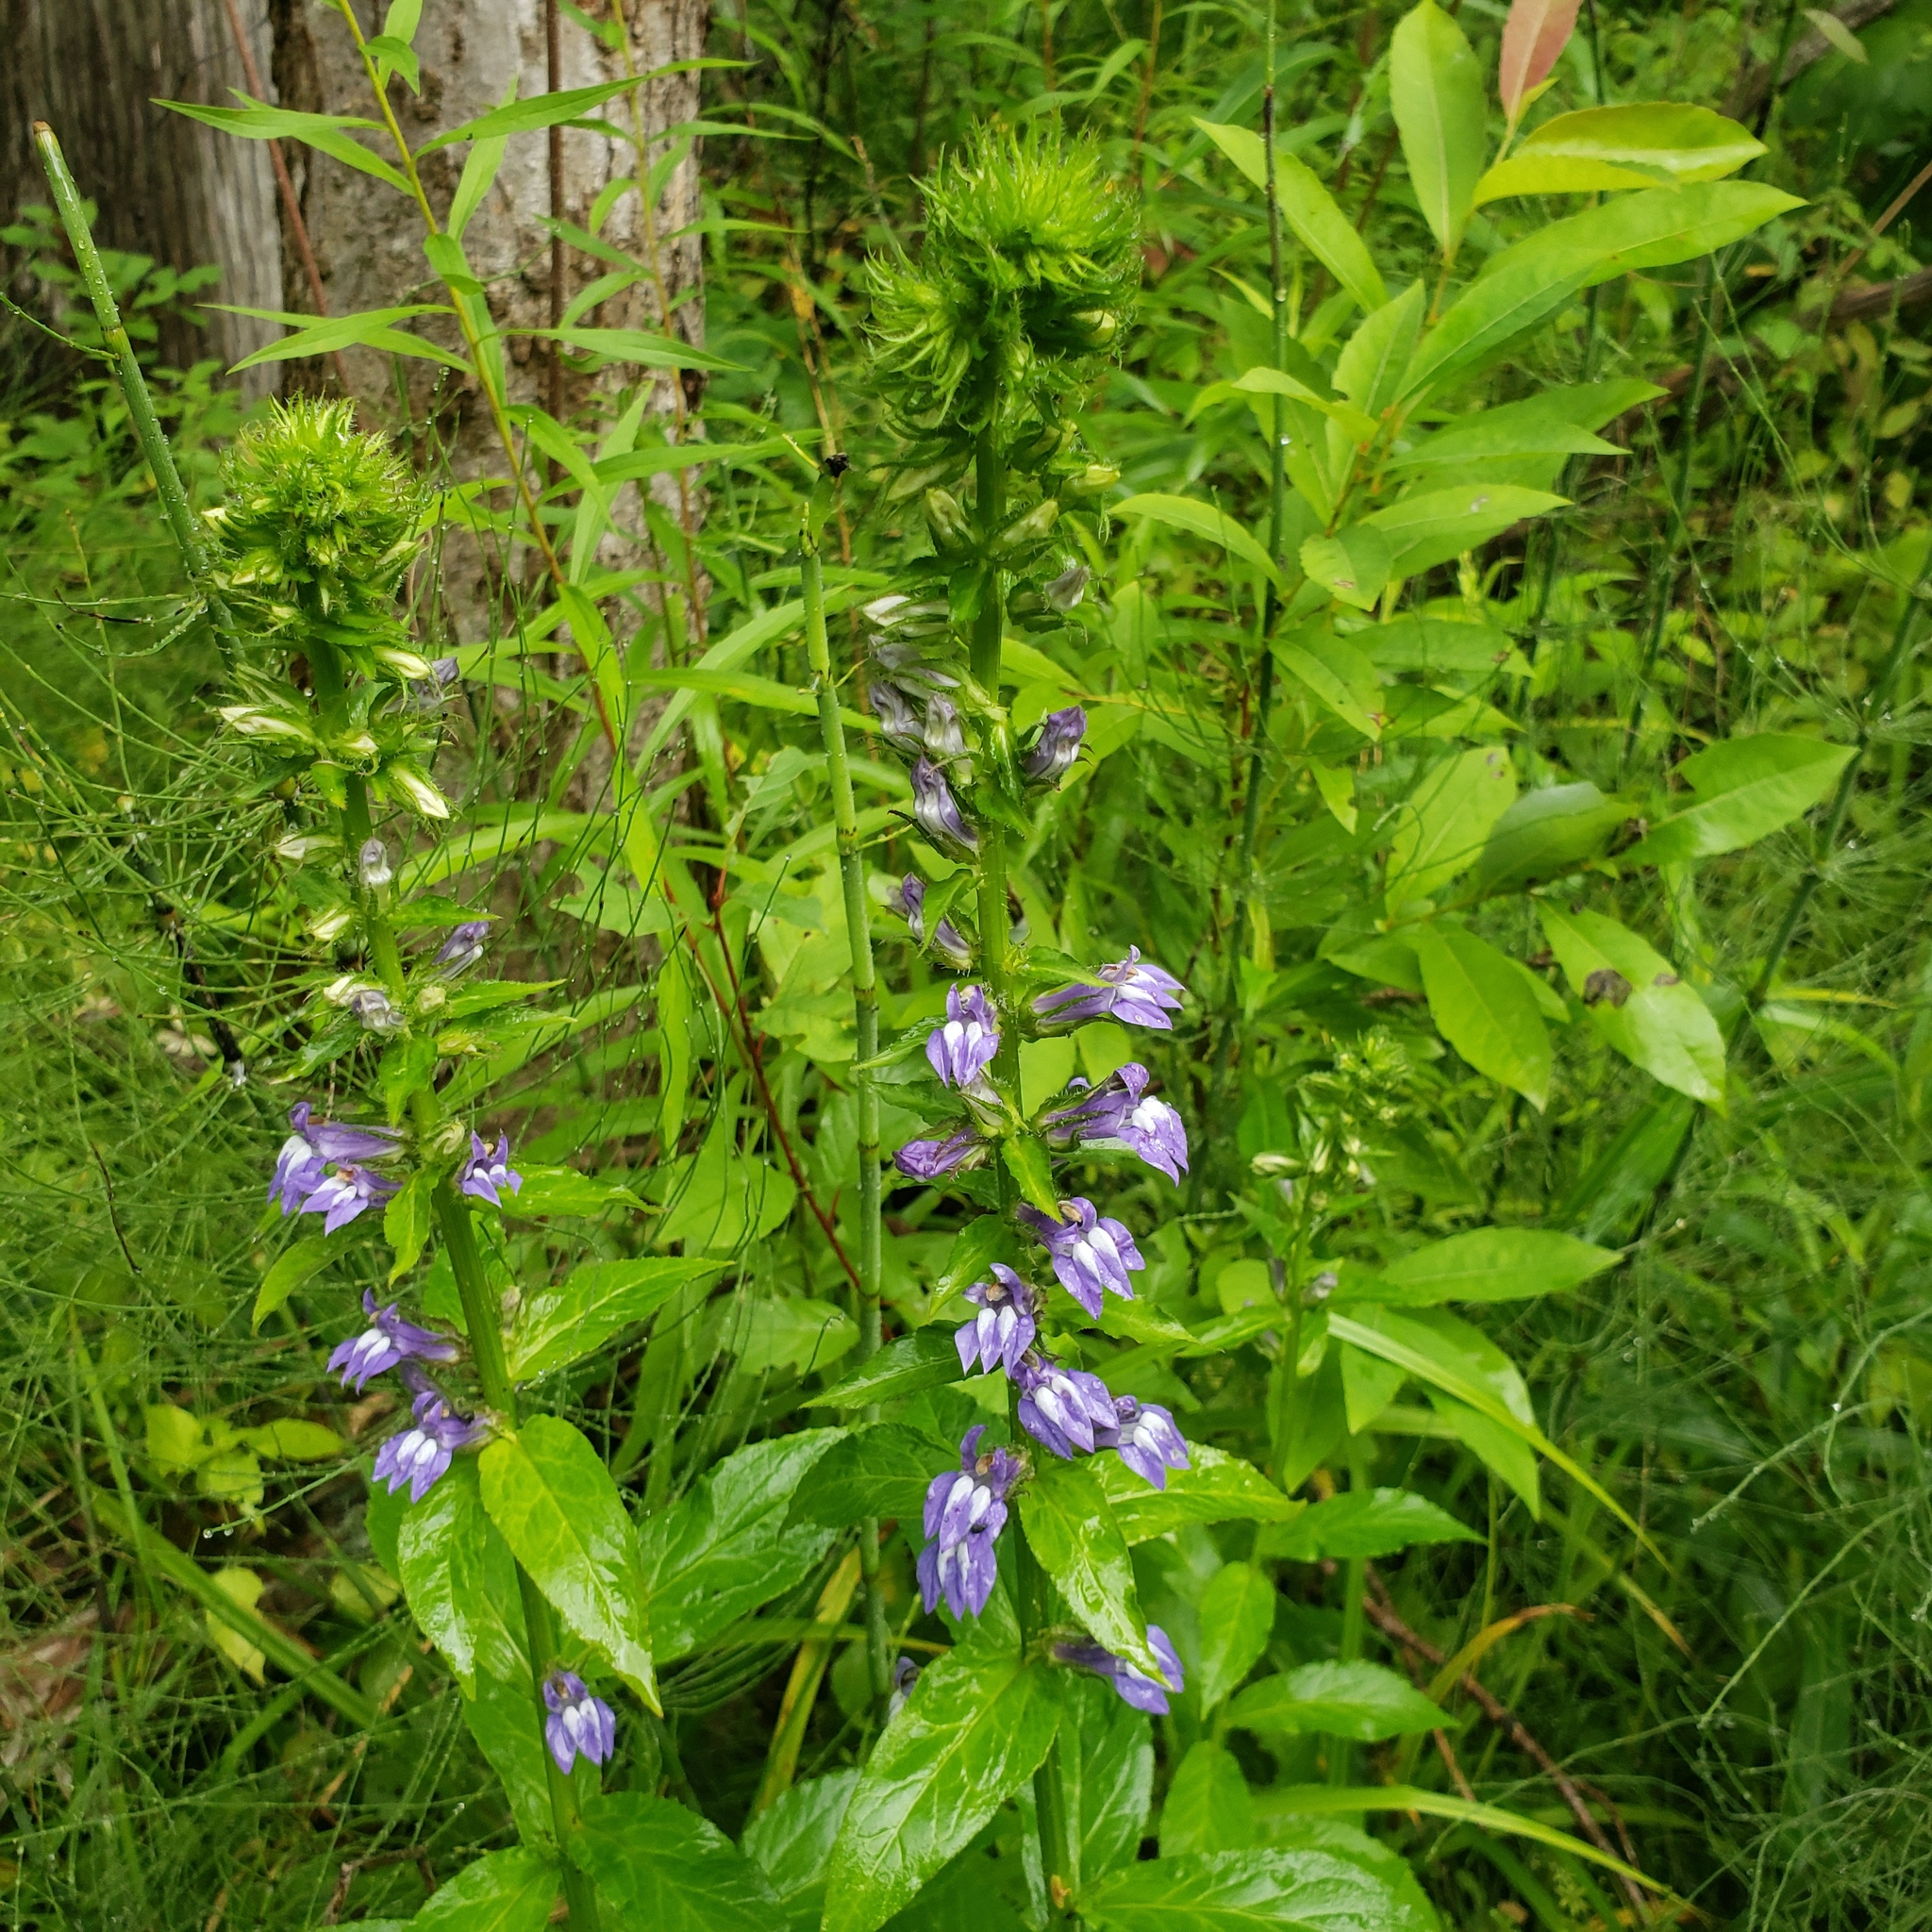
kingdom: Plantae
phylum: Tracheophyta
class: Magnoliopsida
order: Asterales
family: Campanulaceae
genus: Lobelia
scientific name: Lobelia siphilitica
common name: Great lobelia
